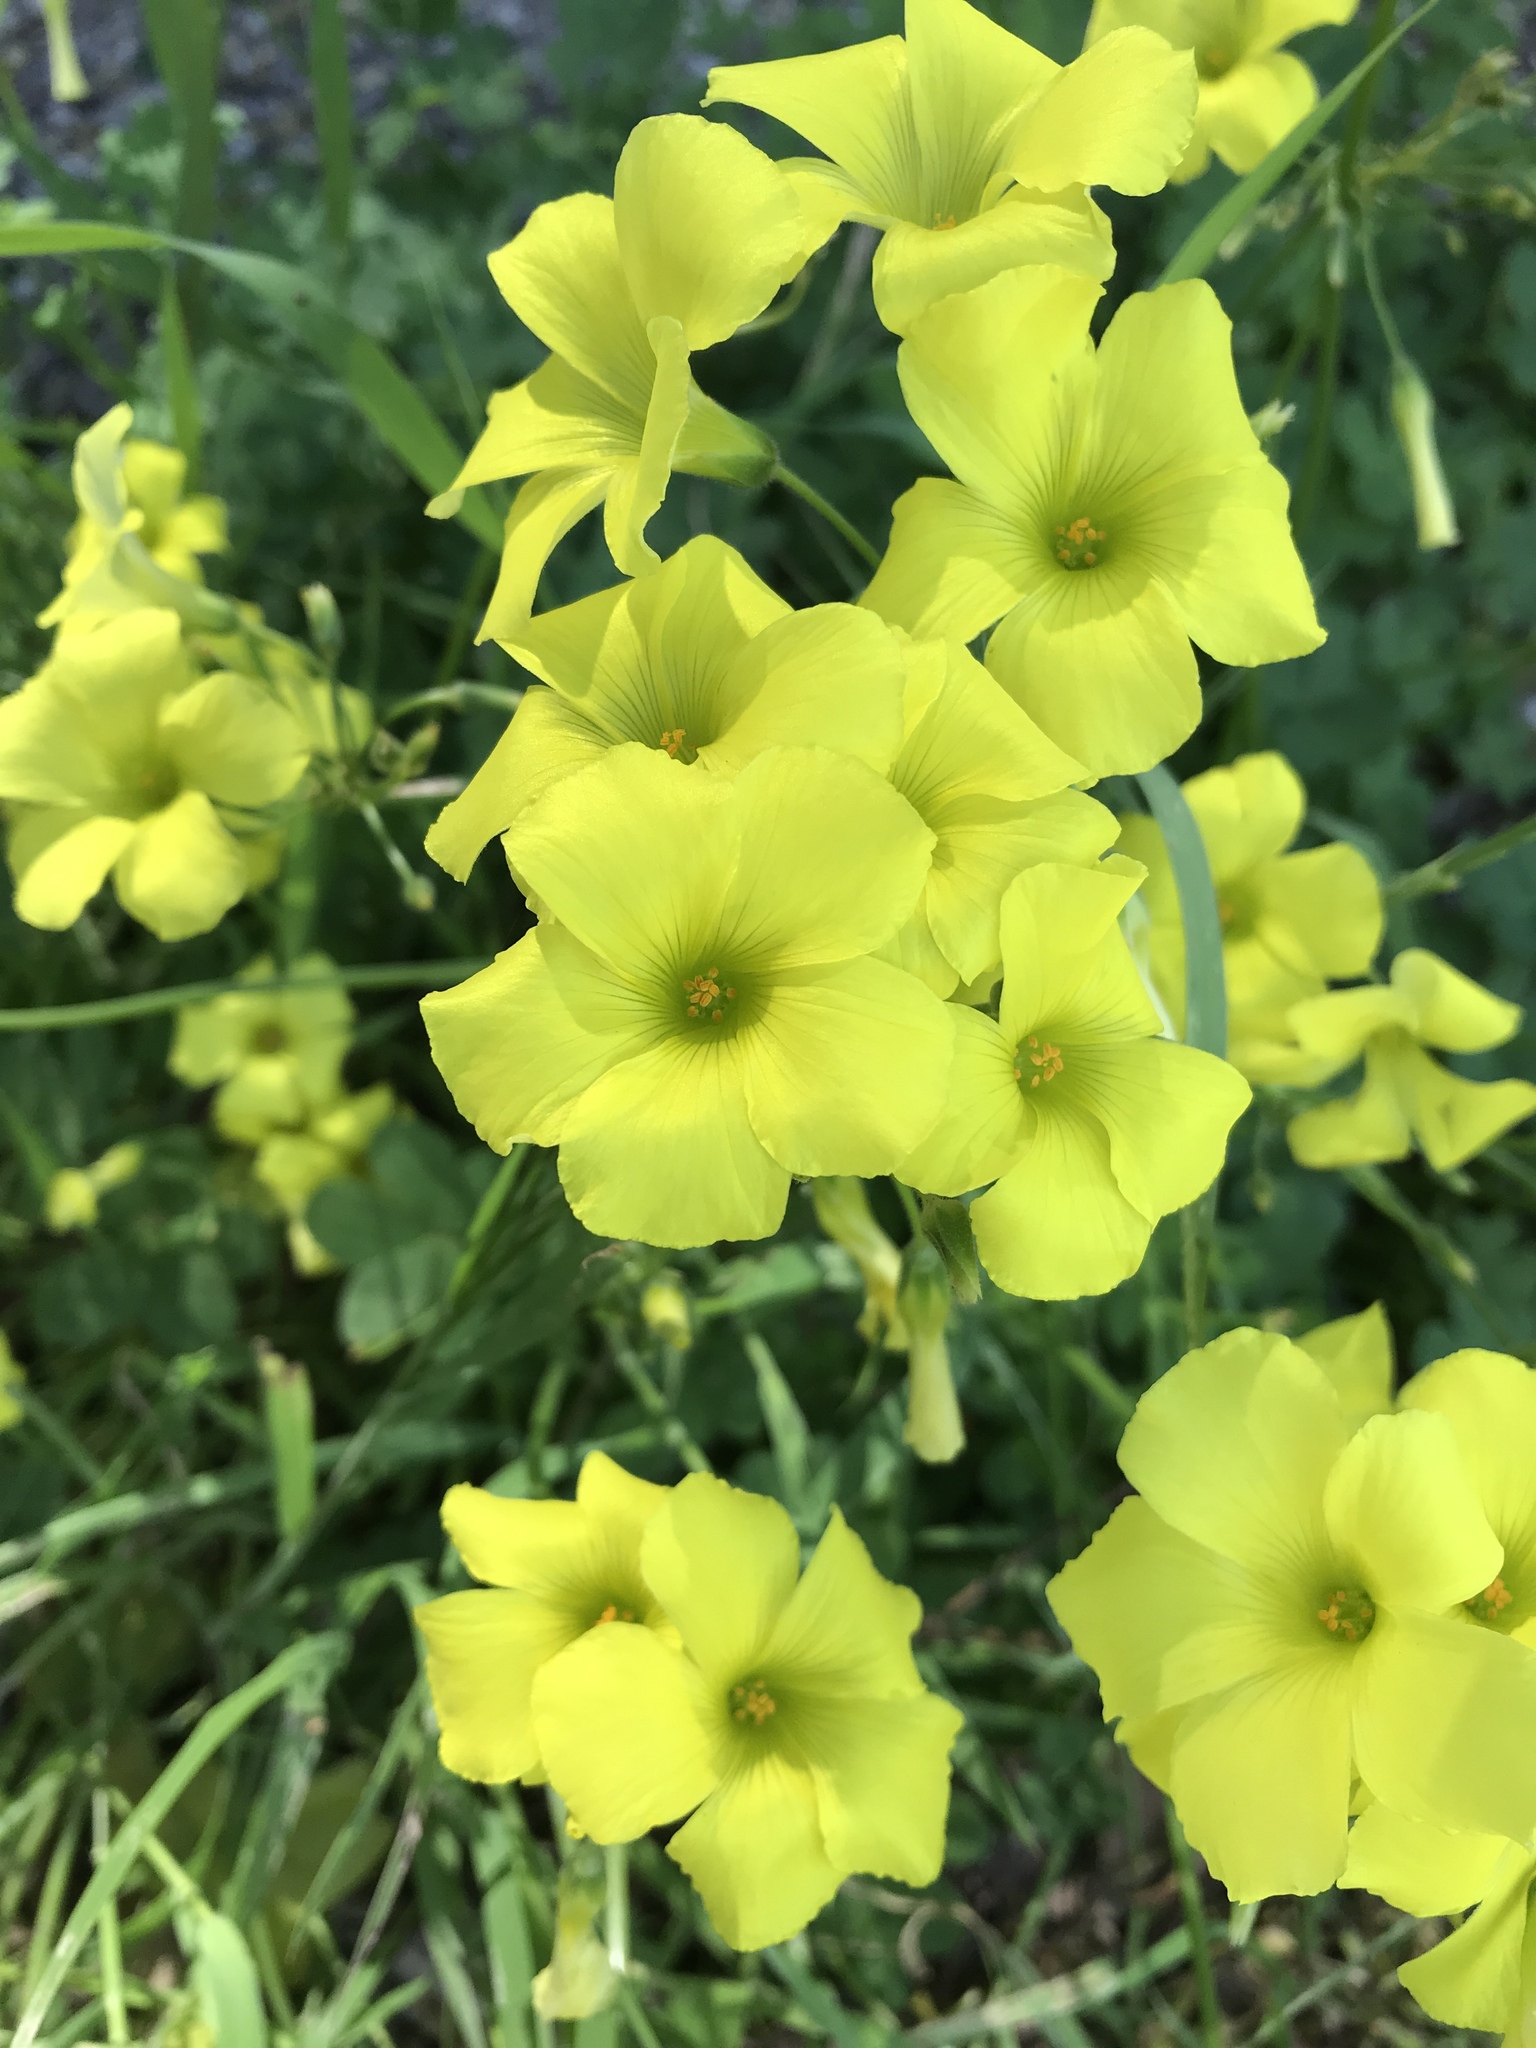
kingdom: Plantae
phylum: Tracheophyta
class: Magnoliopsida
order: Oxalidales
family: Oxalidaceae
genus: Oxalis
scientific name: Oxalis pes-caprae
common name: Bermuda-buttercup
